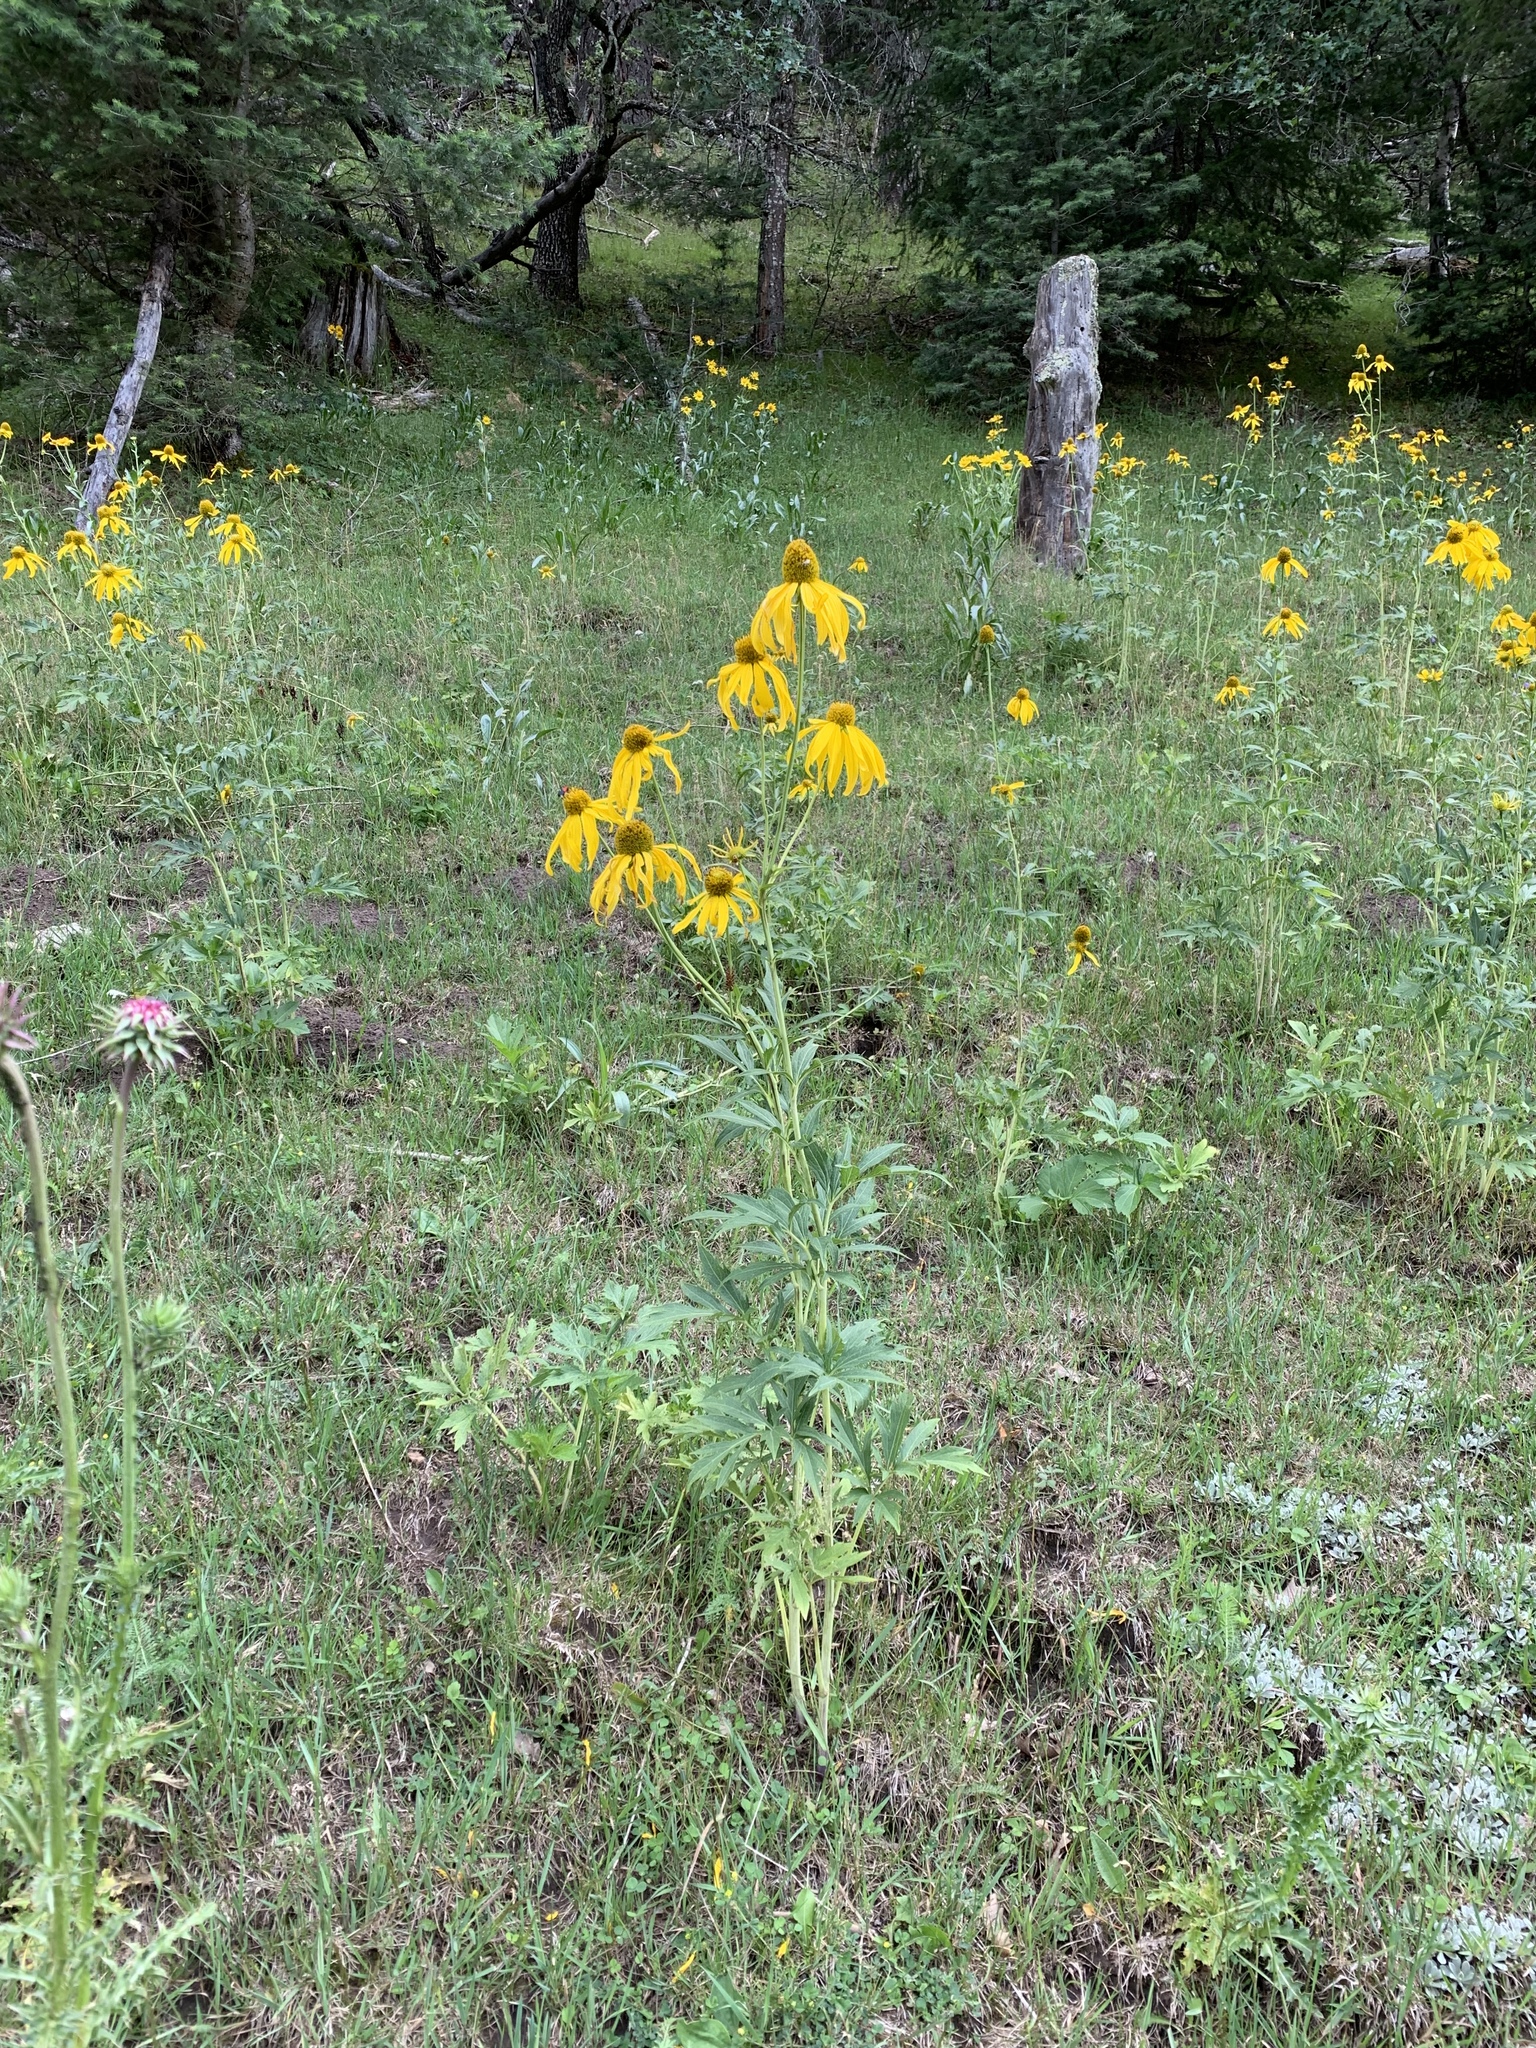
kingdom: Plantae
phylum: Tracheophyta
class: Magnoliopsida
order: Asterales
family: Asteraceae
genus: Rudbeckia
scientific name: Rudbeckia laciniata
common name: Coneflower
